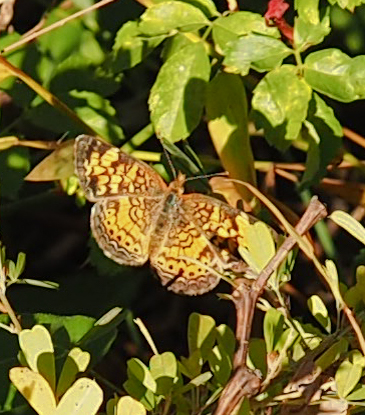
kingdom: Animalia
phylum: Arthropoda
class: Insecta
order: Lepidoptera
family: Nymphalidae
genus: Phyciodes
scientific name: Phyciodes tharos
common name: Pearl crescent
